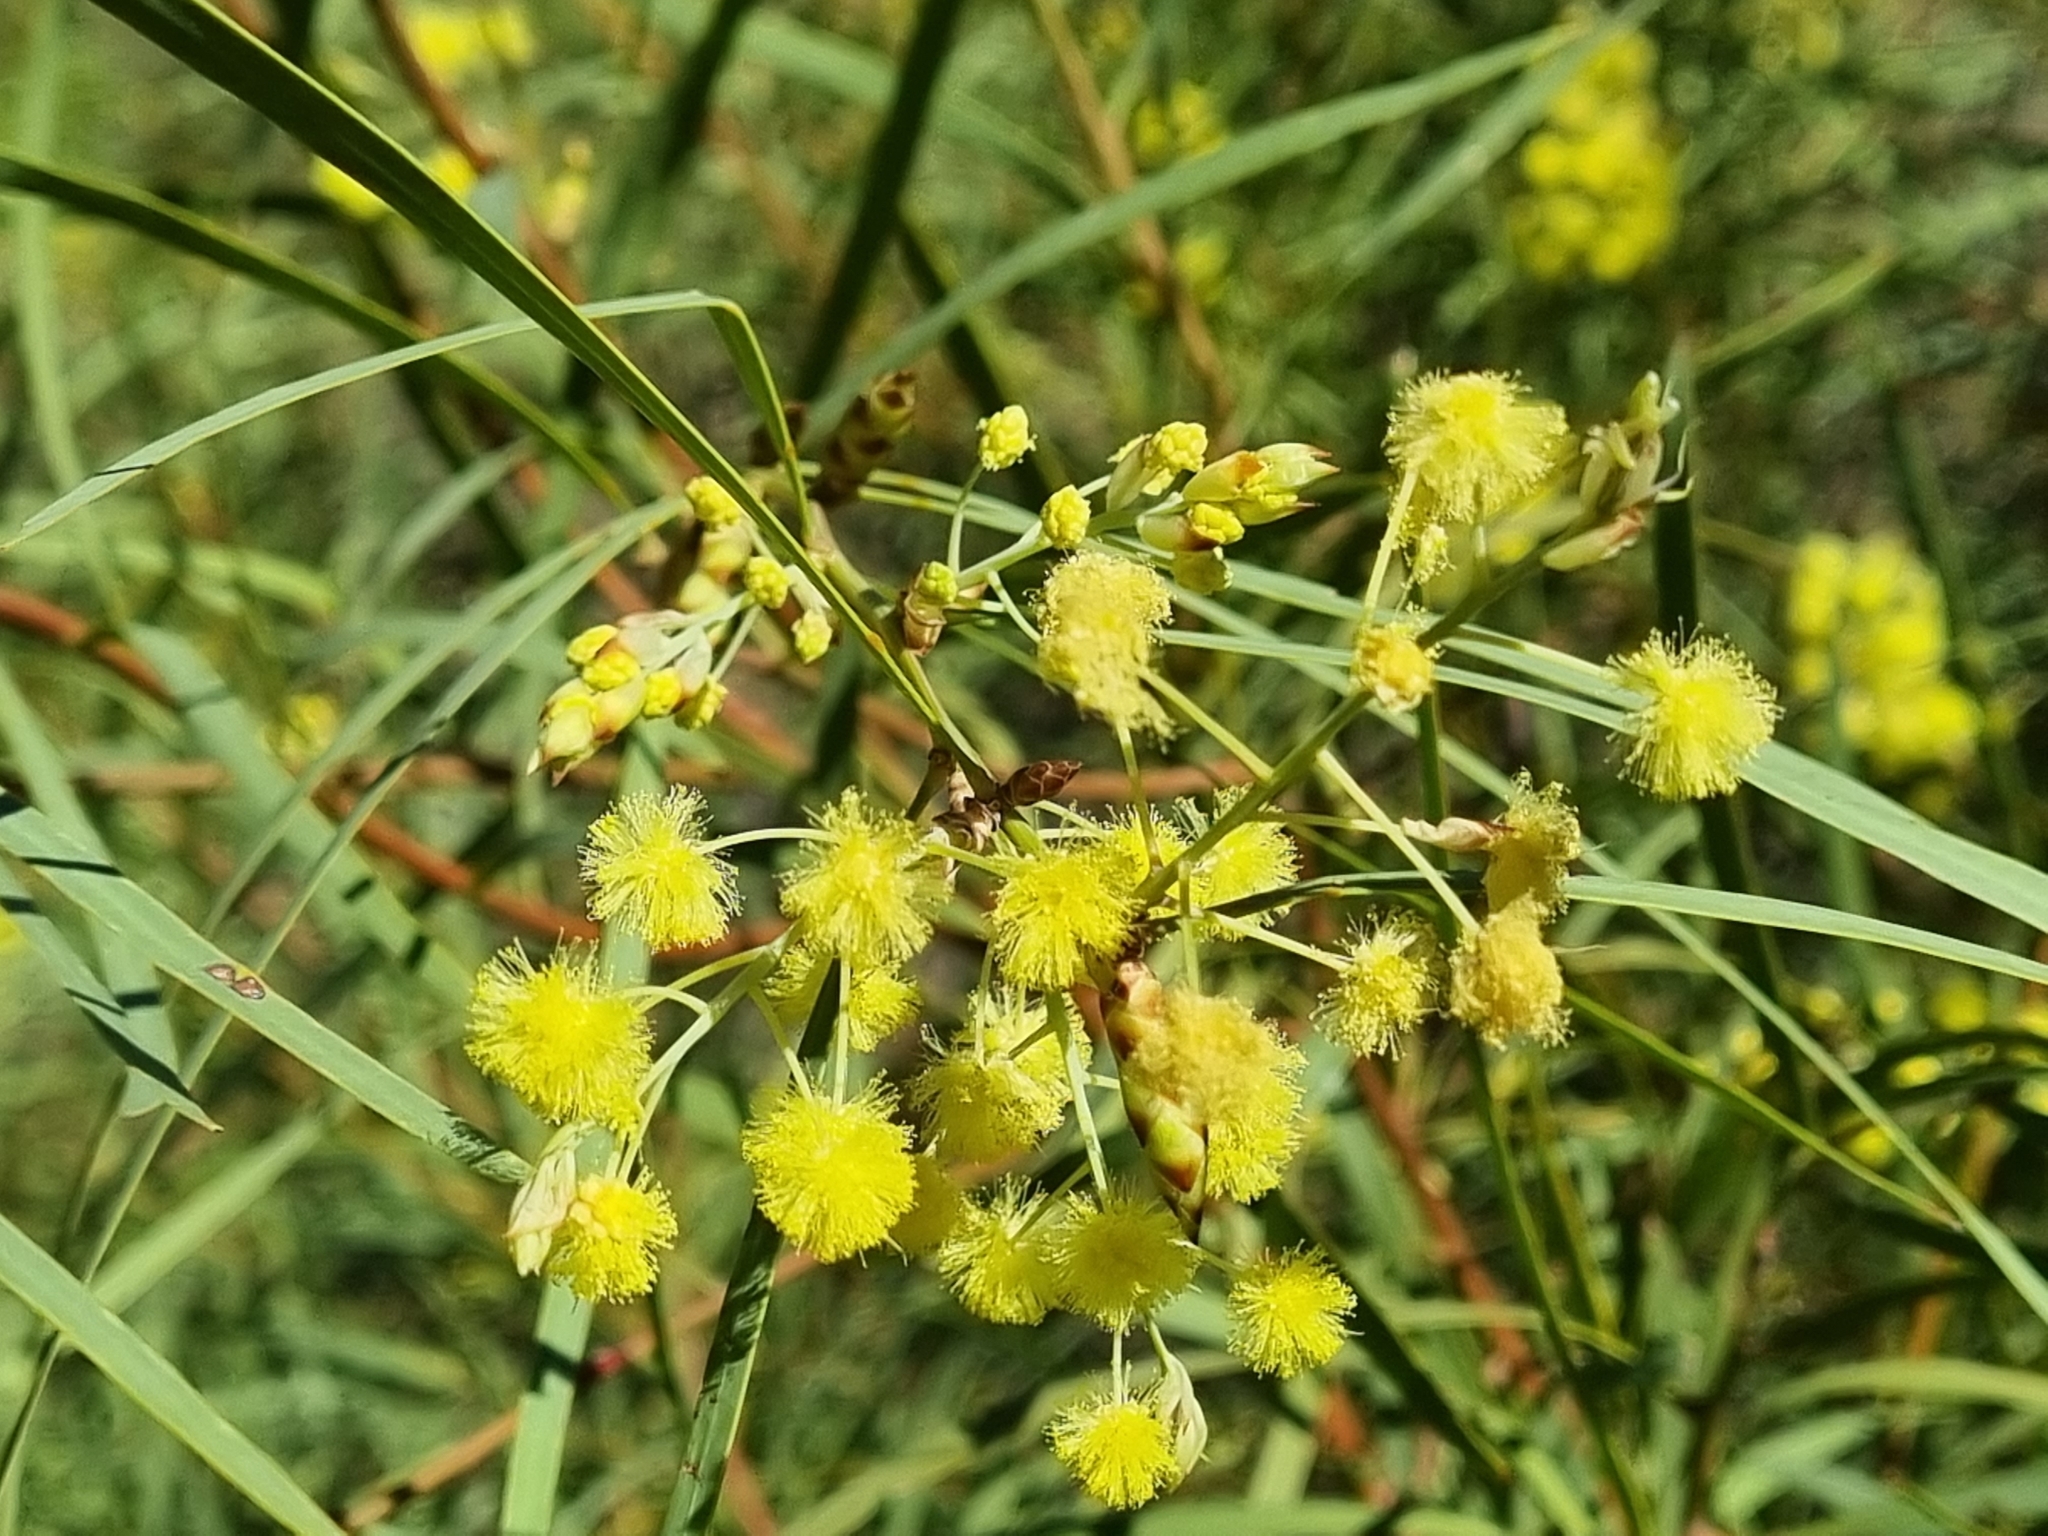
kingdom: Plantae
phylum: Tracheophyta
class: Magnoliopsida
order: Fabales
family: Fabaceae
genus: Acacia
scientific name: Acacia iteaphylla
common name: Flinders ranges wattle
